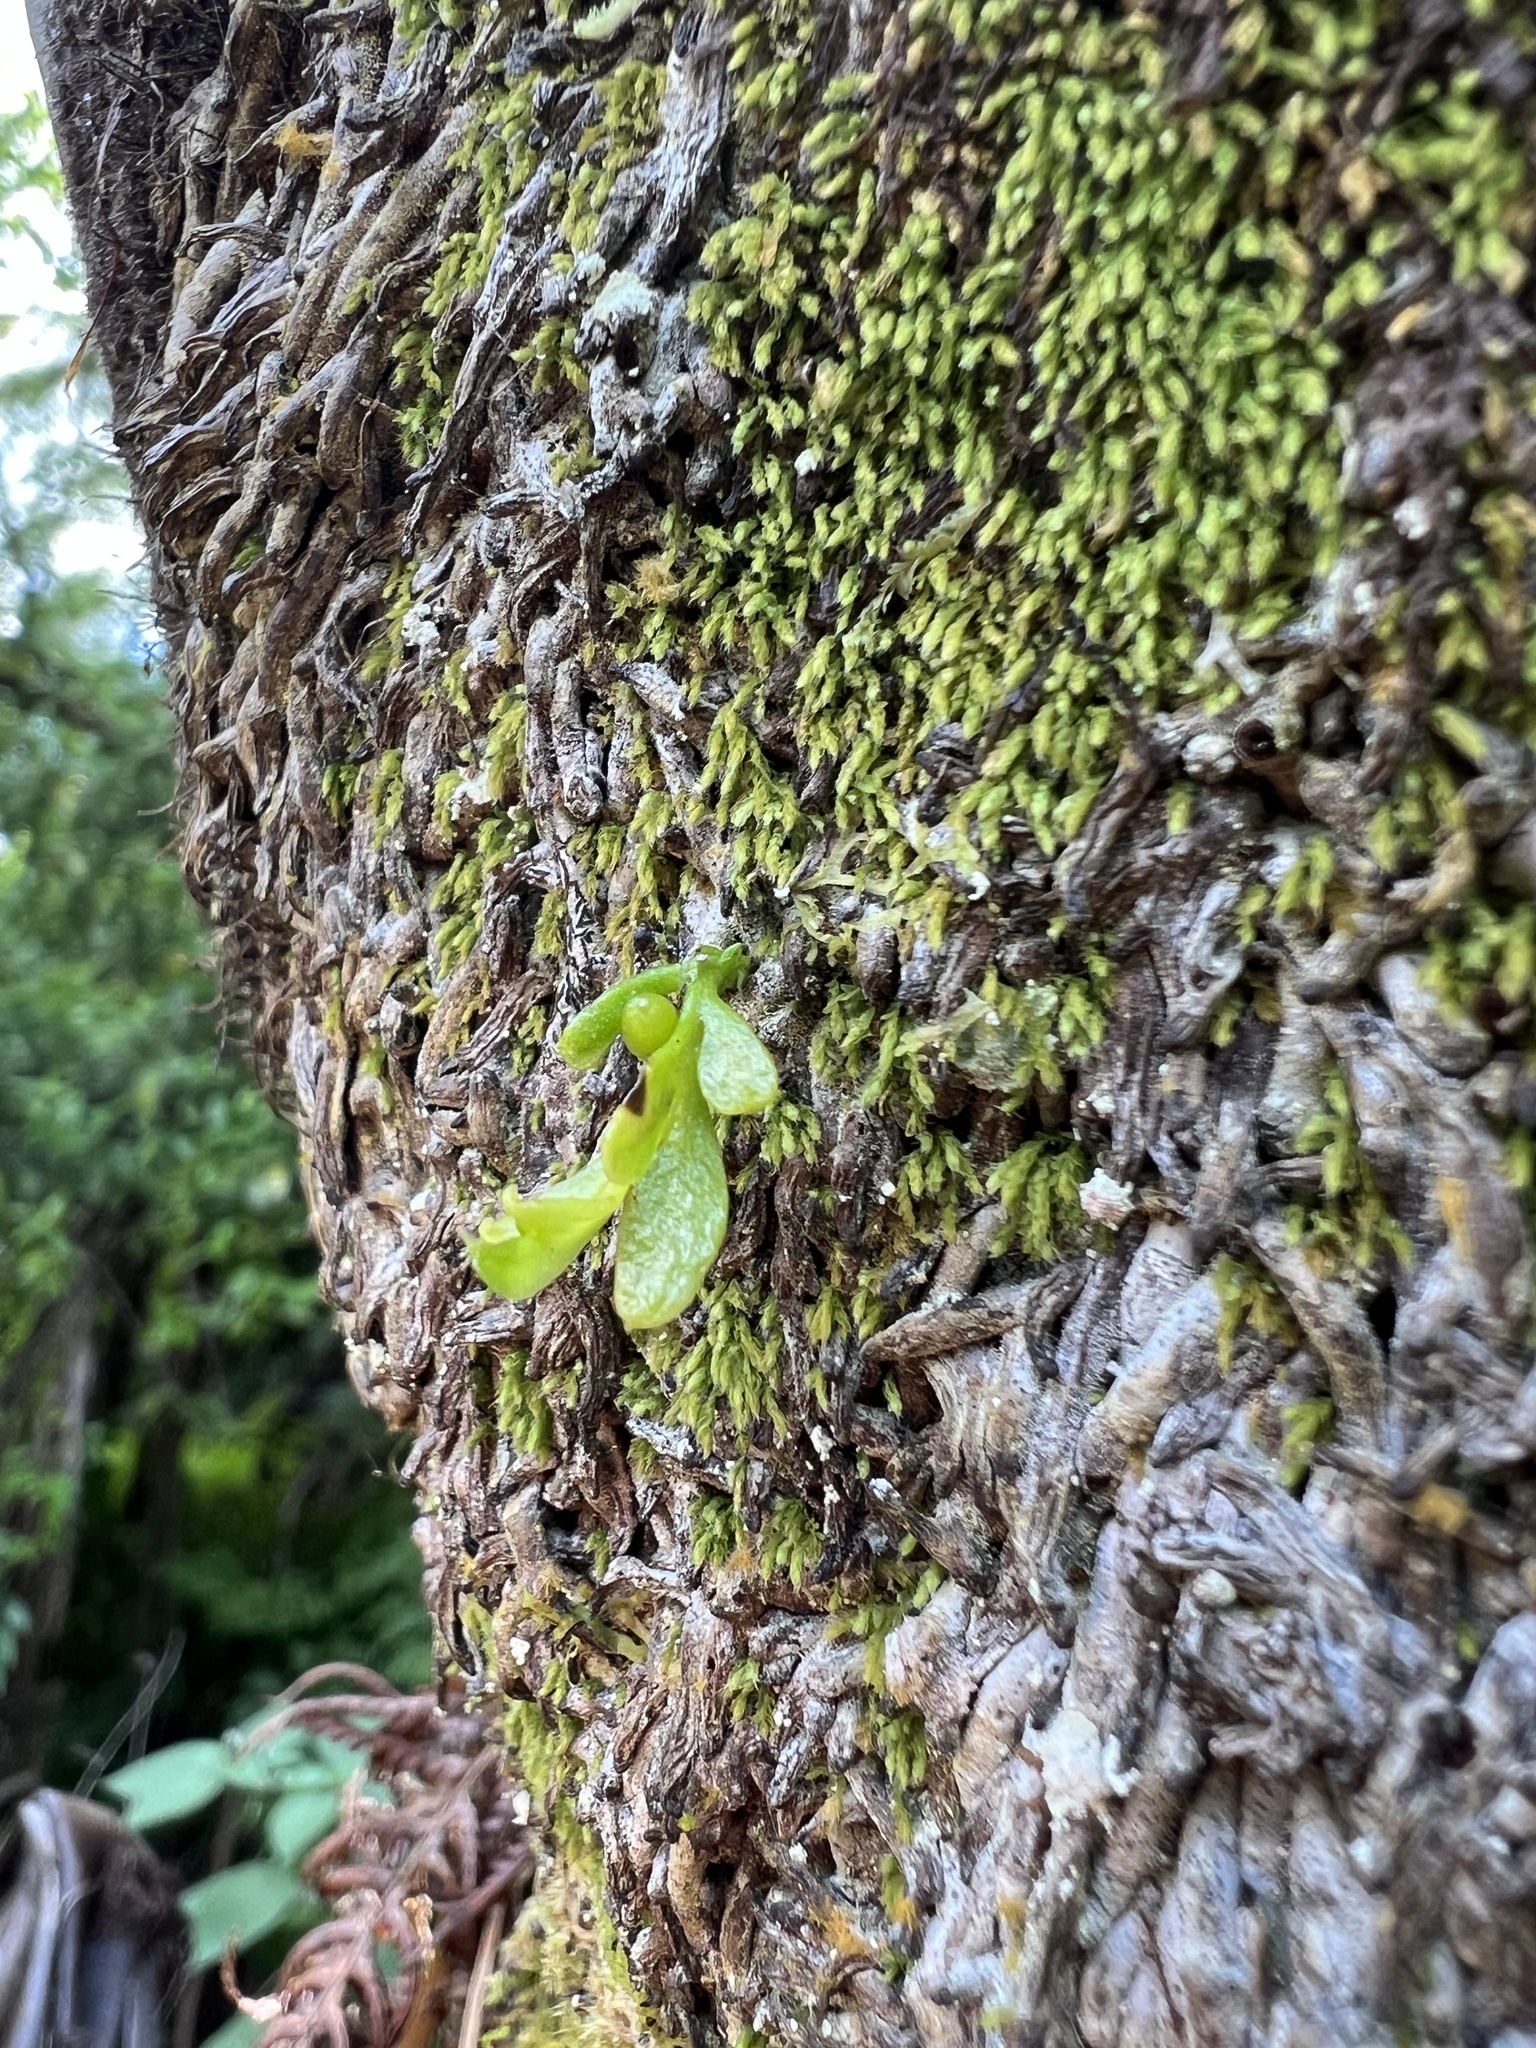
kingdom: Plantae
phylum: Tracheophyta
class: Polypodiopsida
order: Psilotales
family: Psilotaceae
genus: Tmesipteris
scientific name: Tmesipteris lanceolata
